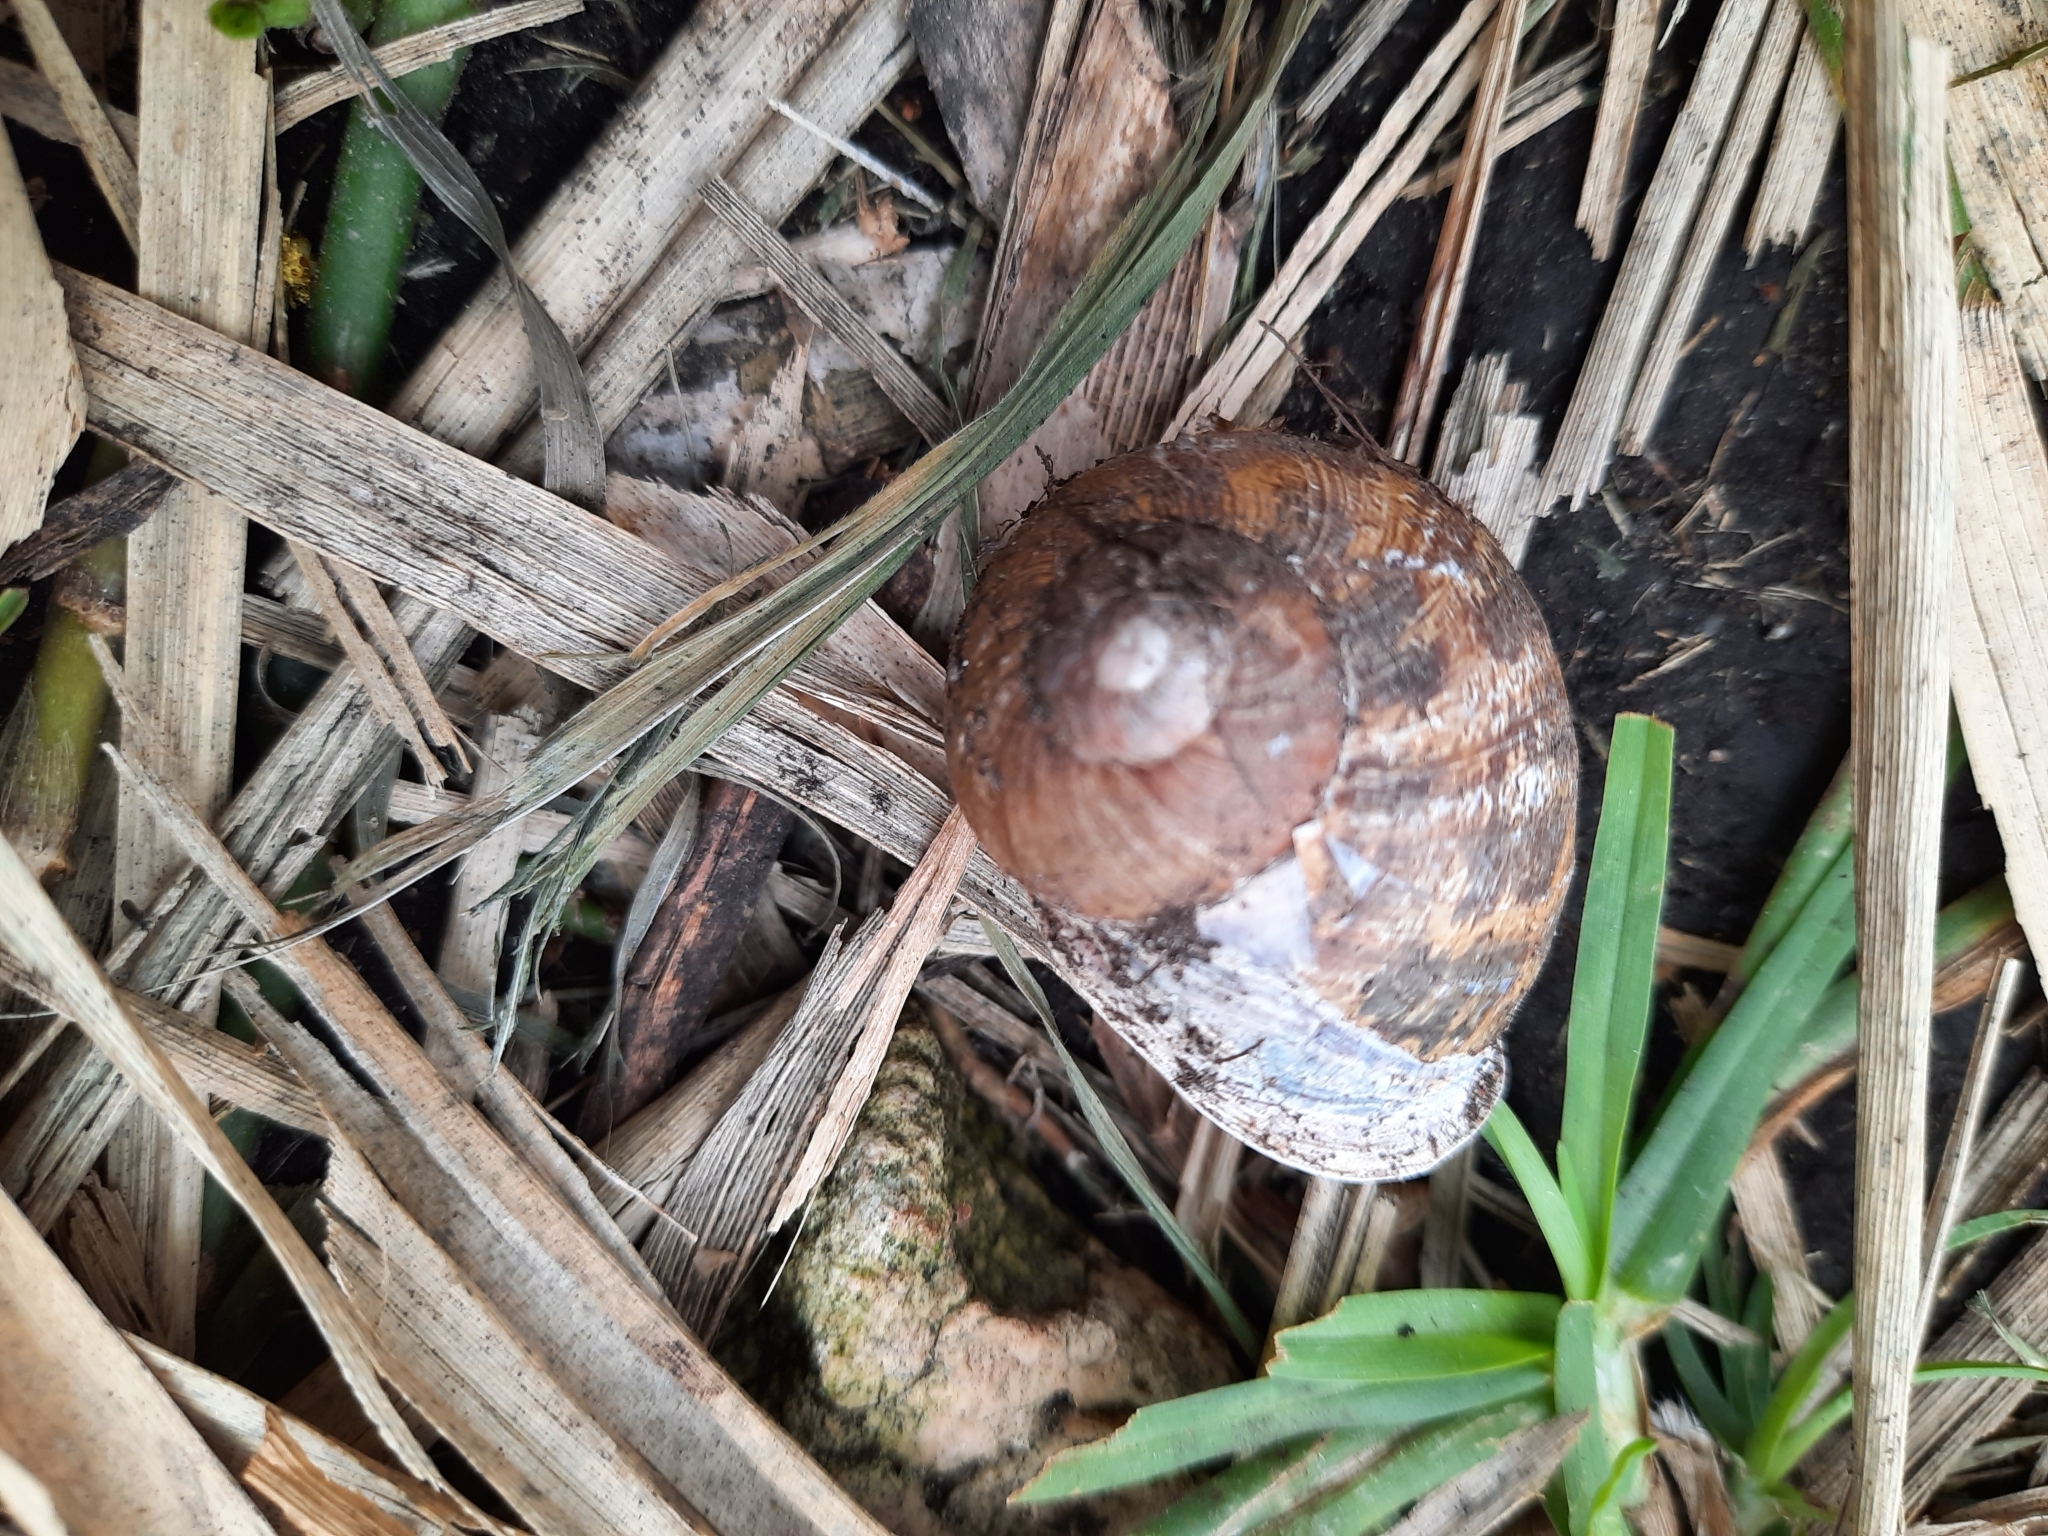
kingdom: Animalia
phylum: Mollusca
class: Gastropoda
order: Stylommatophora
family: Helicidae
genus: Cornu
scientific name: Cornu aspersum
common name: Brown garden snail
